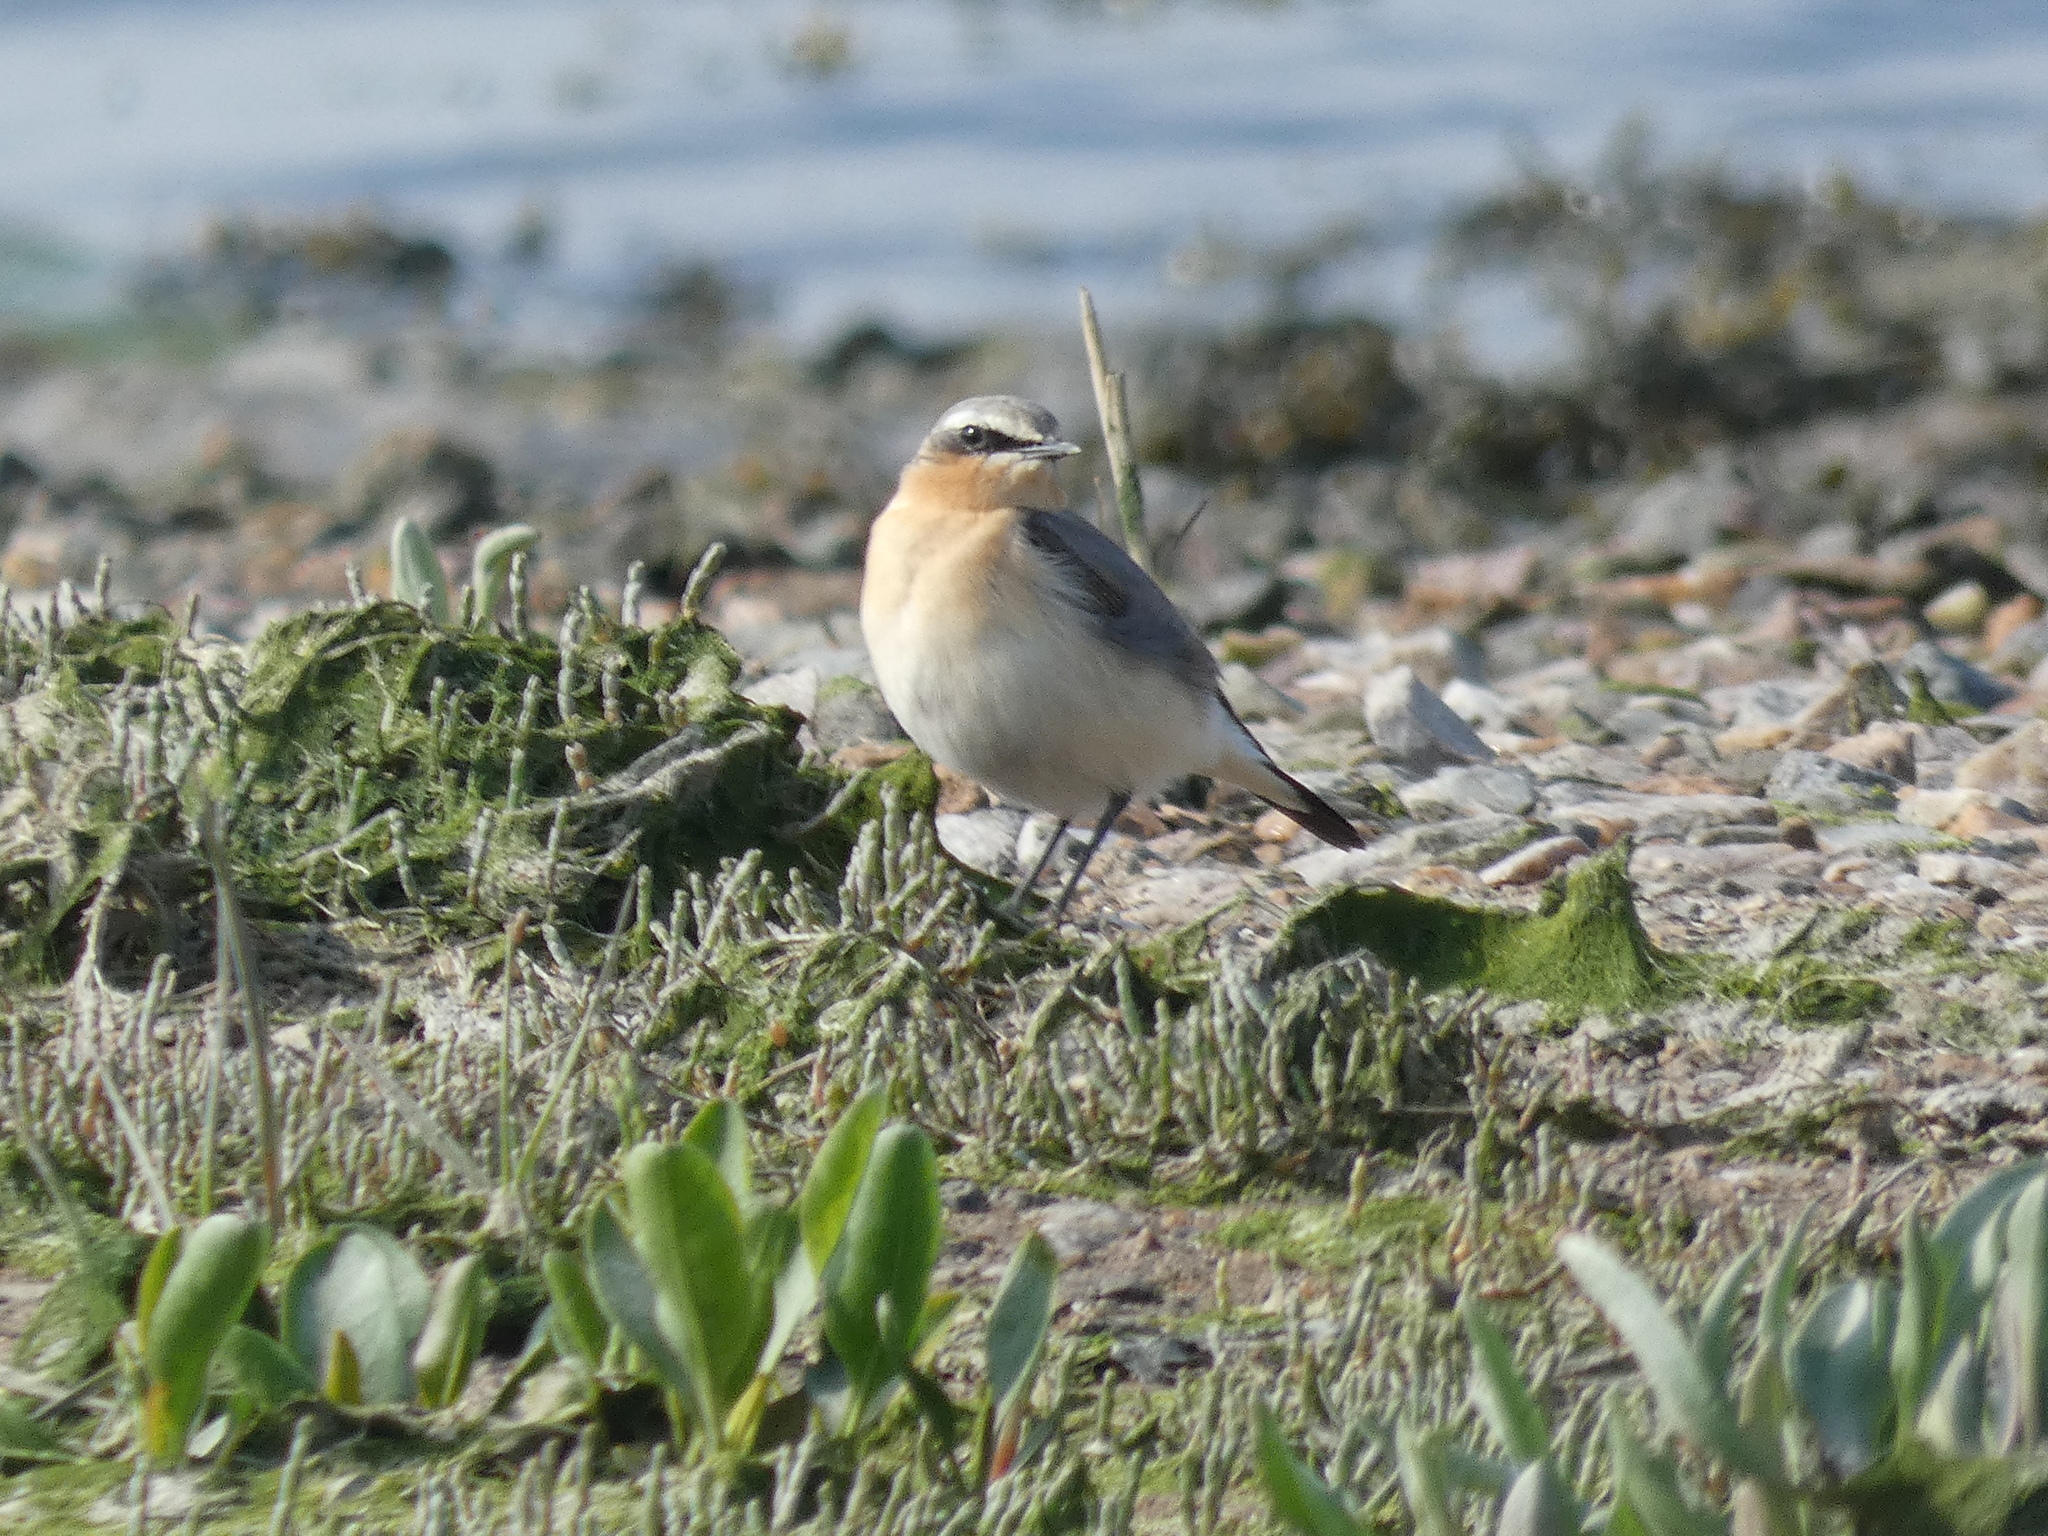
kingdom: Animalia
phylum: Chordata
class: Aves
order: Passeriformes
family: Muscicapidae
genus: Oenanthe
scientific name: Oenanthe oenanthe
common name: Northern wheatear
